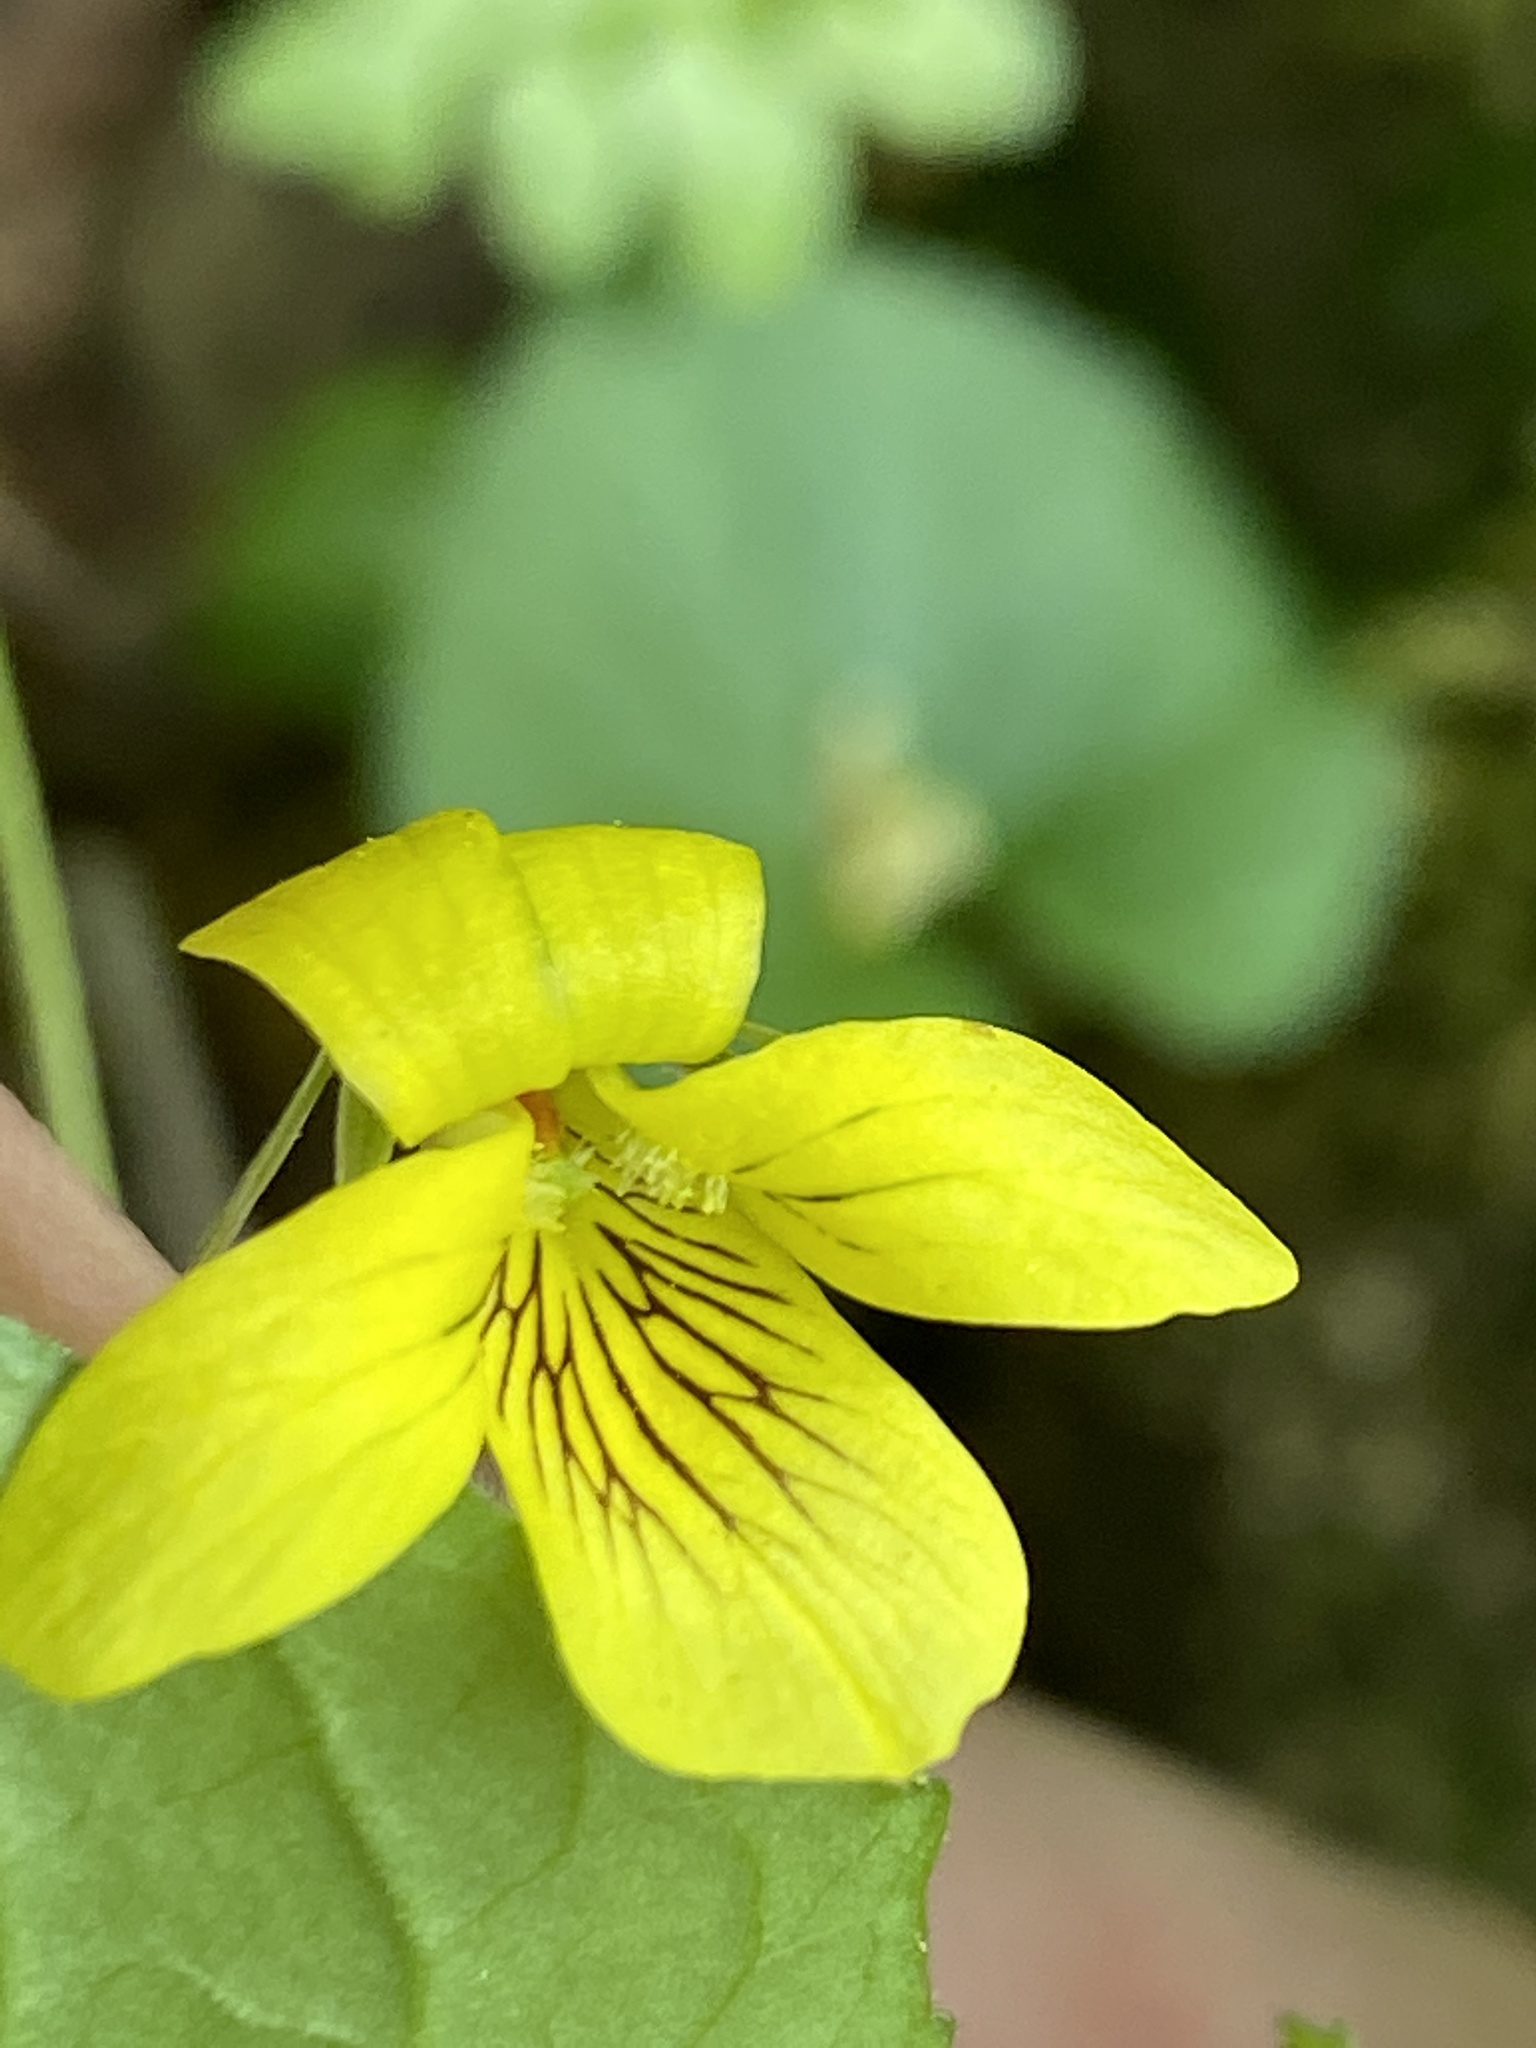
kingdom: Plantae
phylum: Tracheophyta
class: Magnoliopsida
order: Malpighiales
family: Violaceae
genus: Viola
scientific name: Viola eriocarpa
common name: Smooth yellow violet
